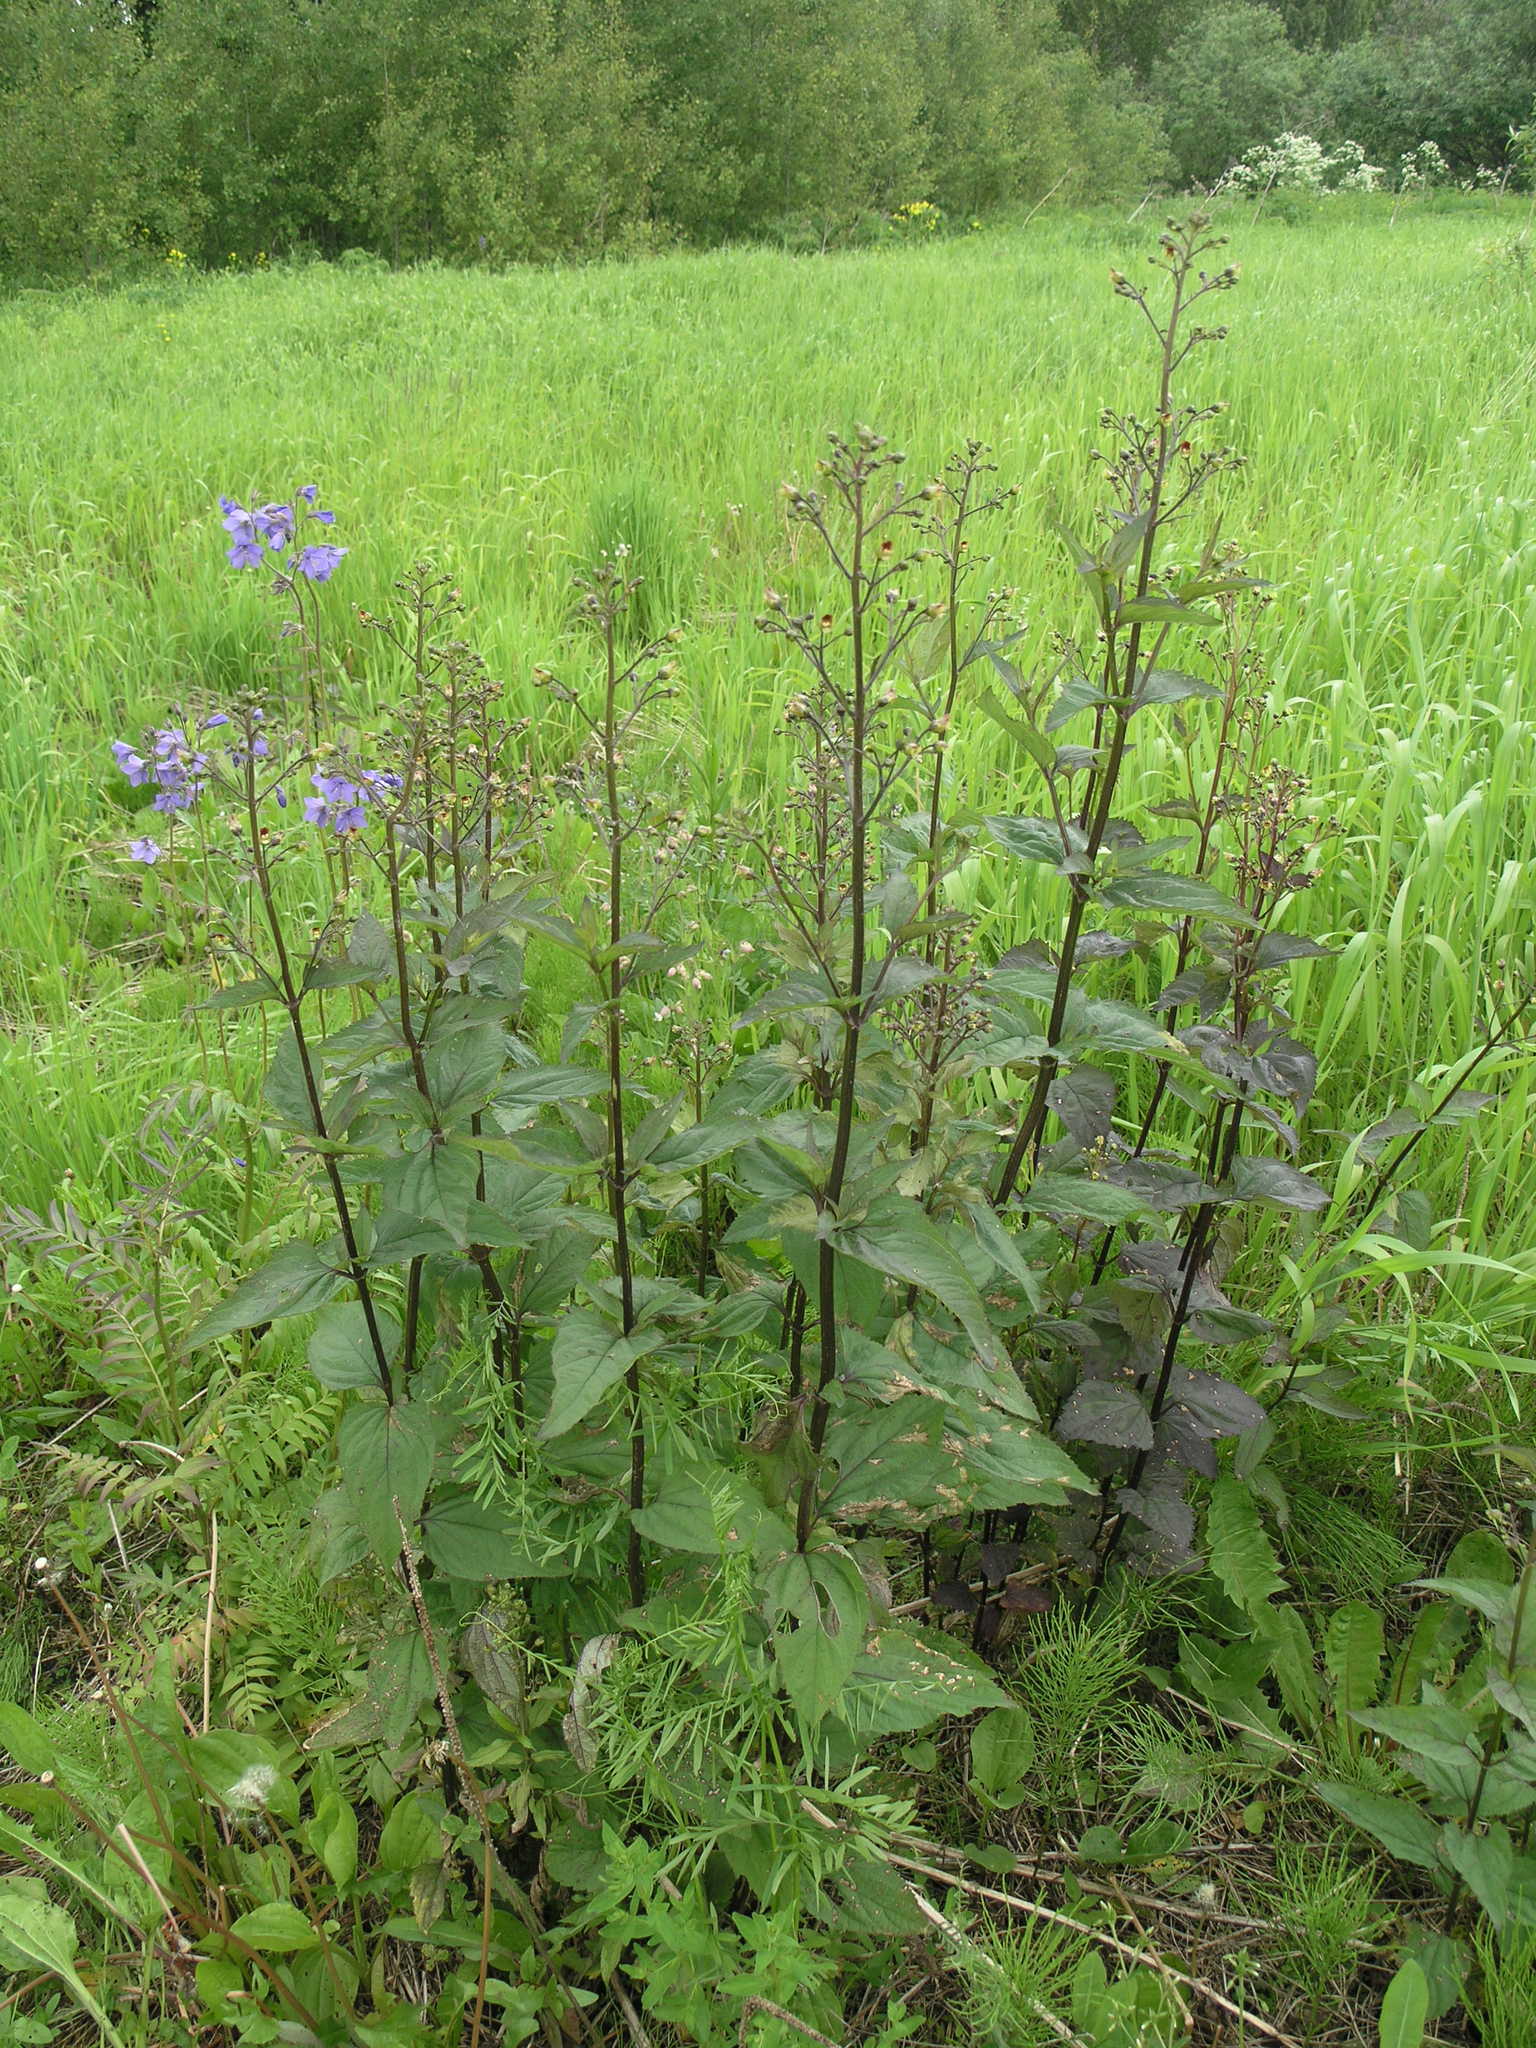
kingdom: Plantae
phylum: Tracheophyta
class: Magnoliopsida
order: Lamiales
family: Scrophulariaceae
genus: Scrophularia
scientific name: Scrophularia nodosa
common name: Common figwort
